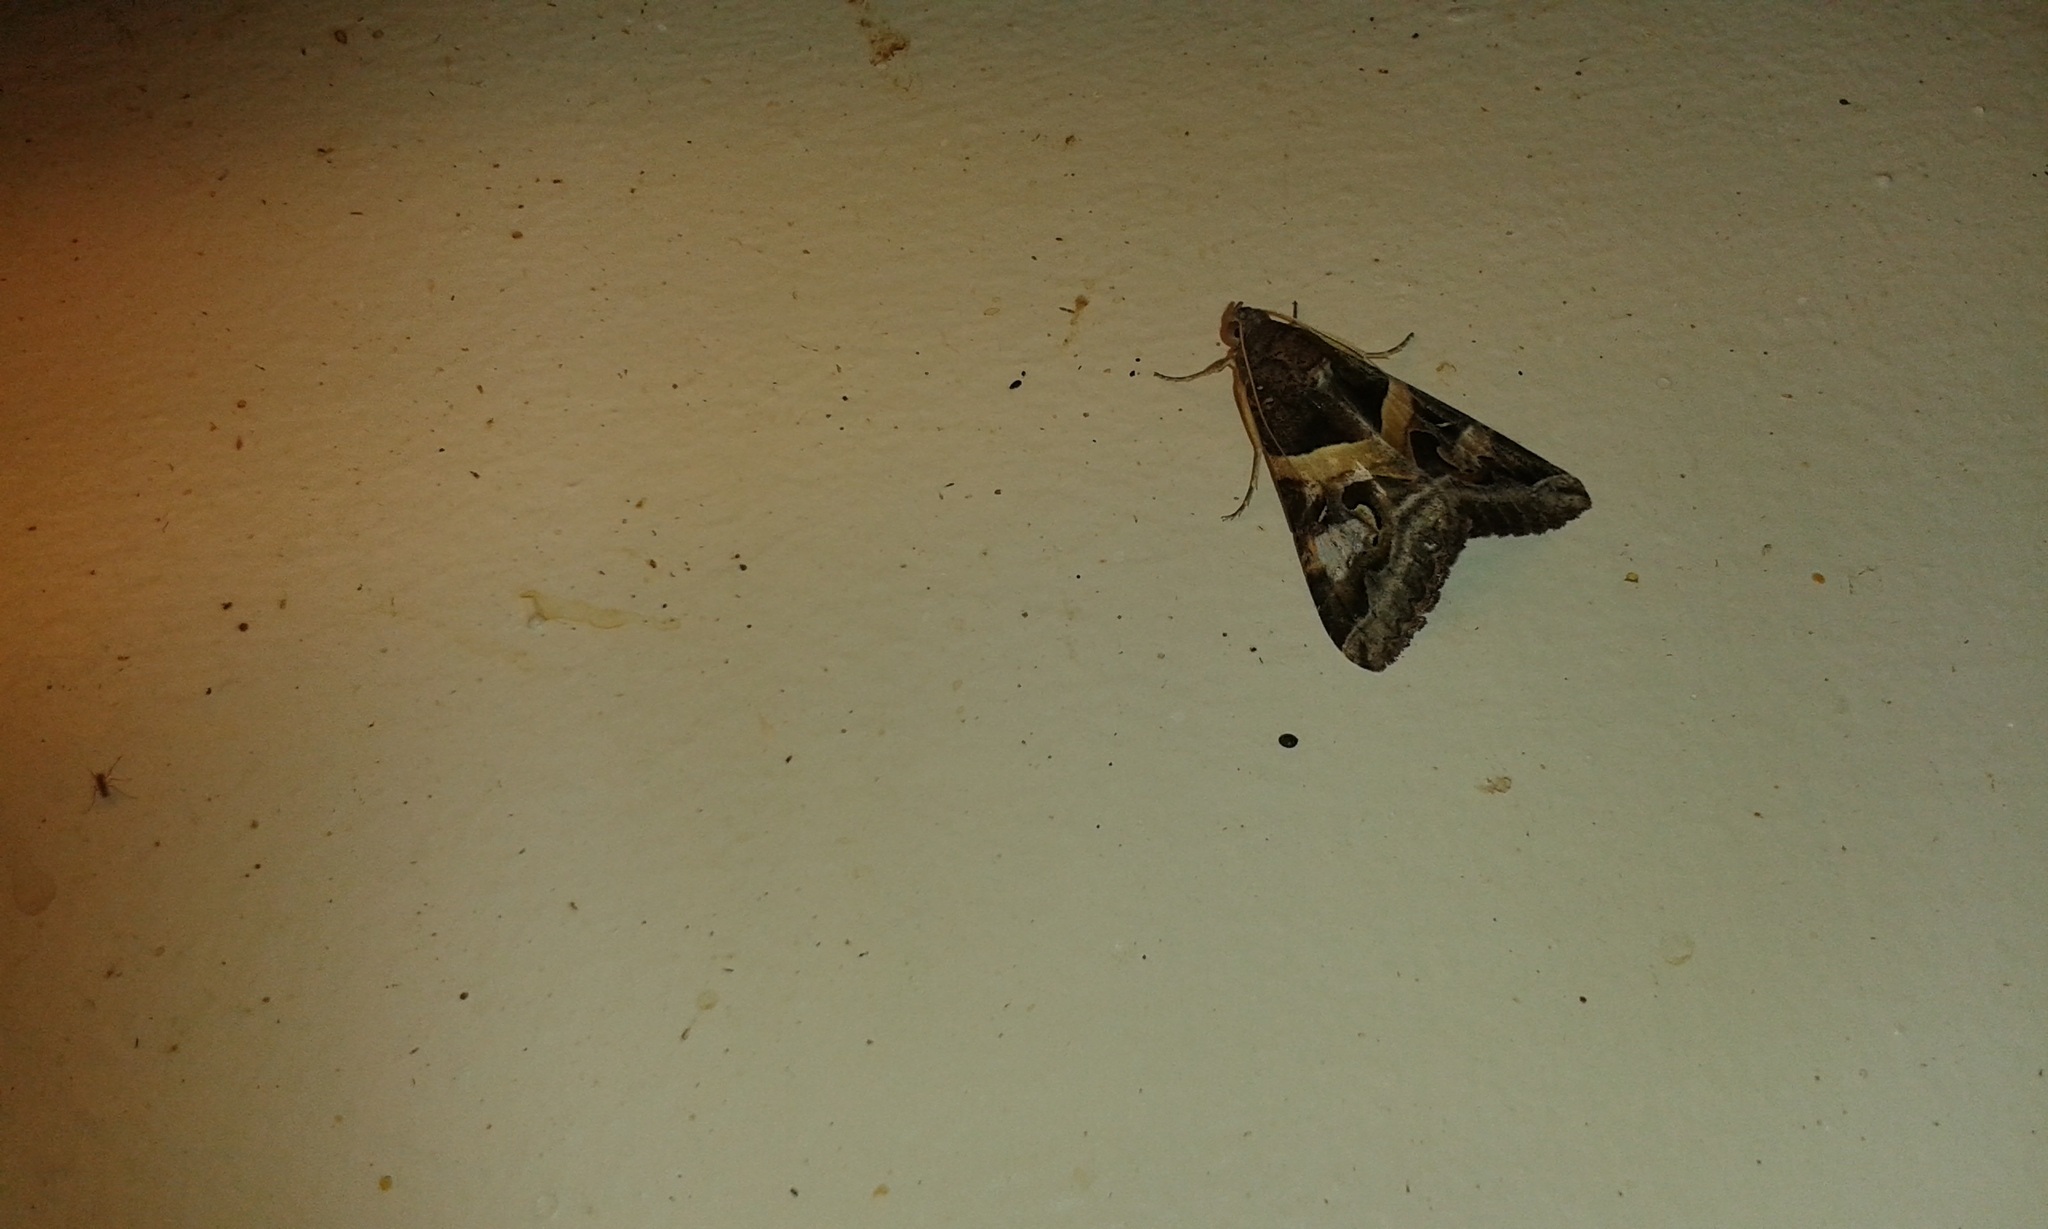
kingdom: Animalia
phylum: Arthropoda
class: Insecta
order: Lepidoptera
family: Erebidae
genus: Melipotis
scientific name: Melipotis indomita
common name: Moth
